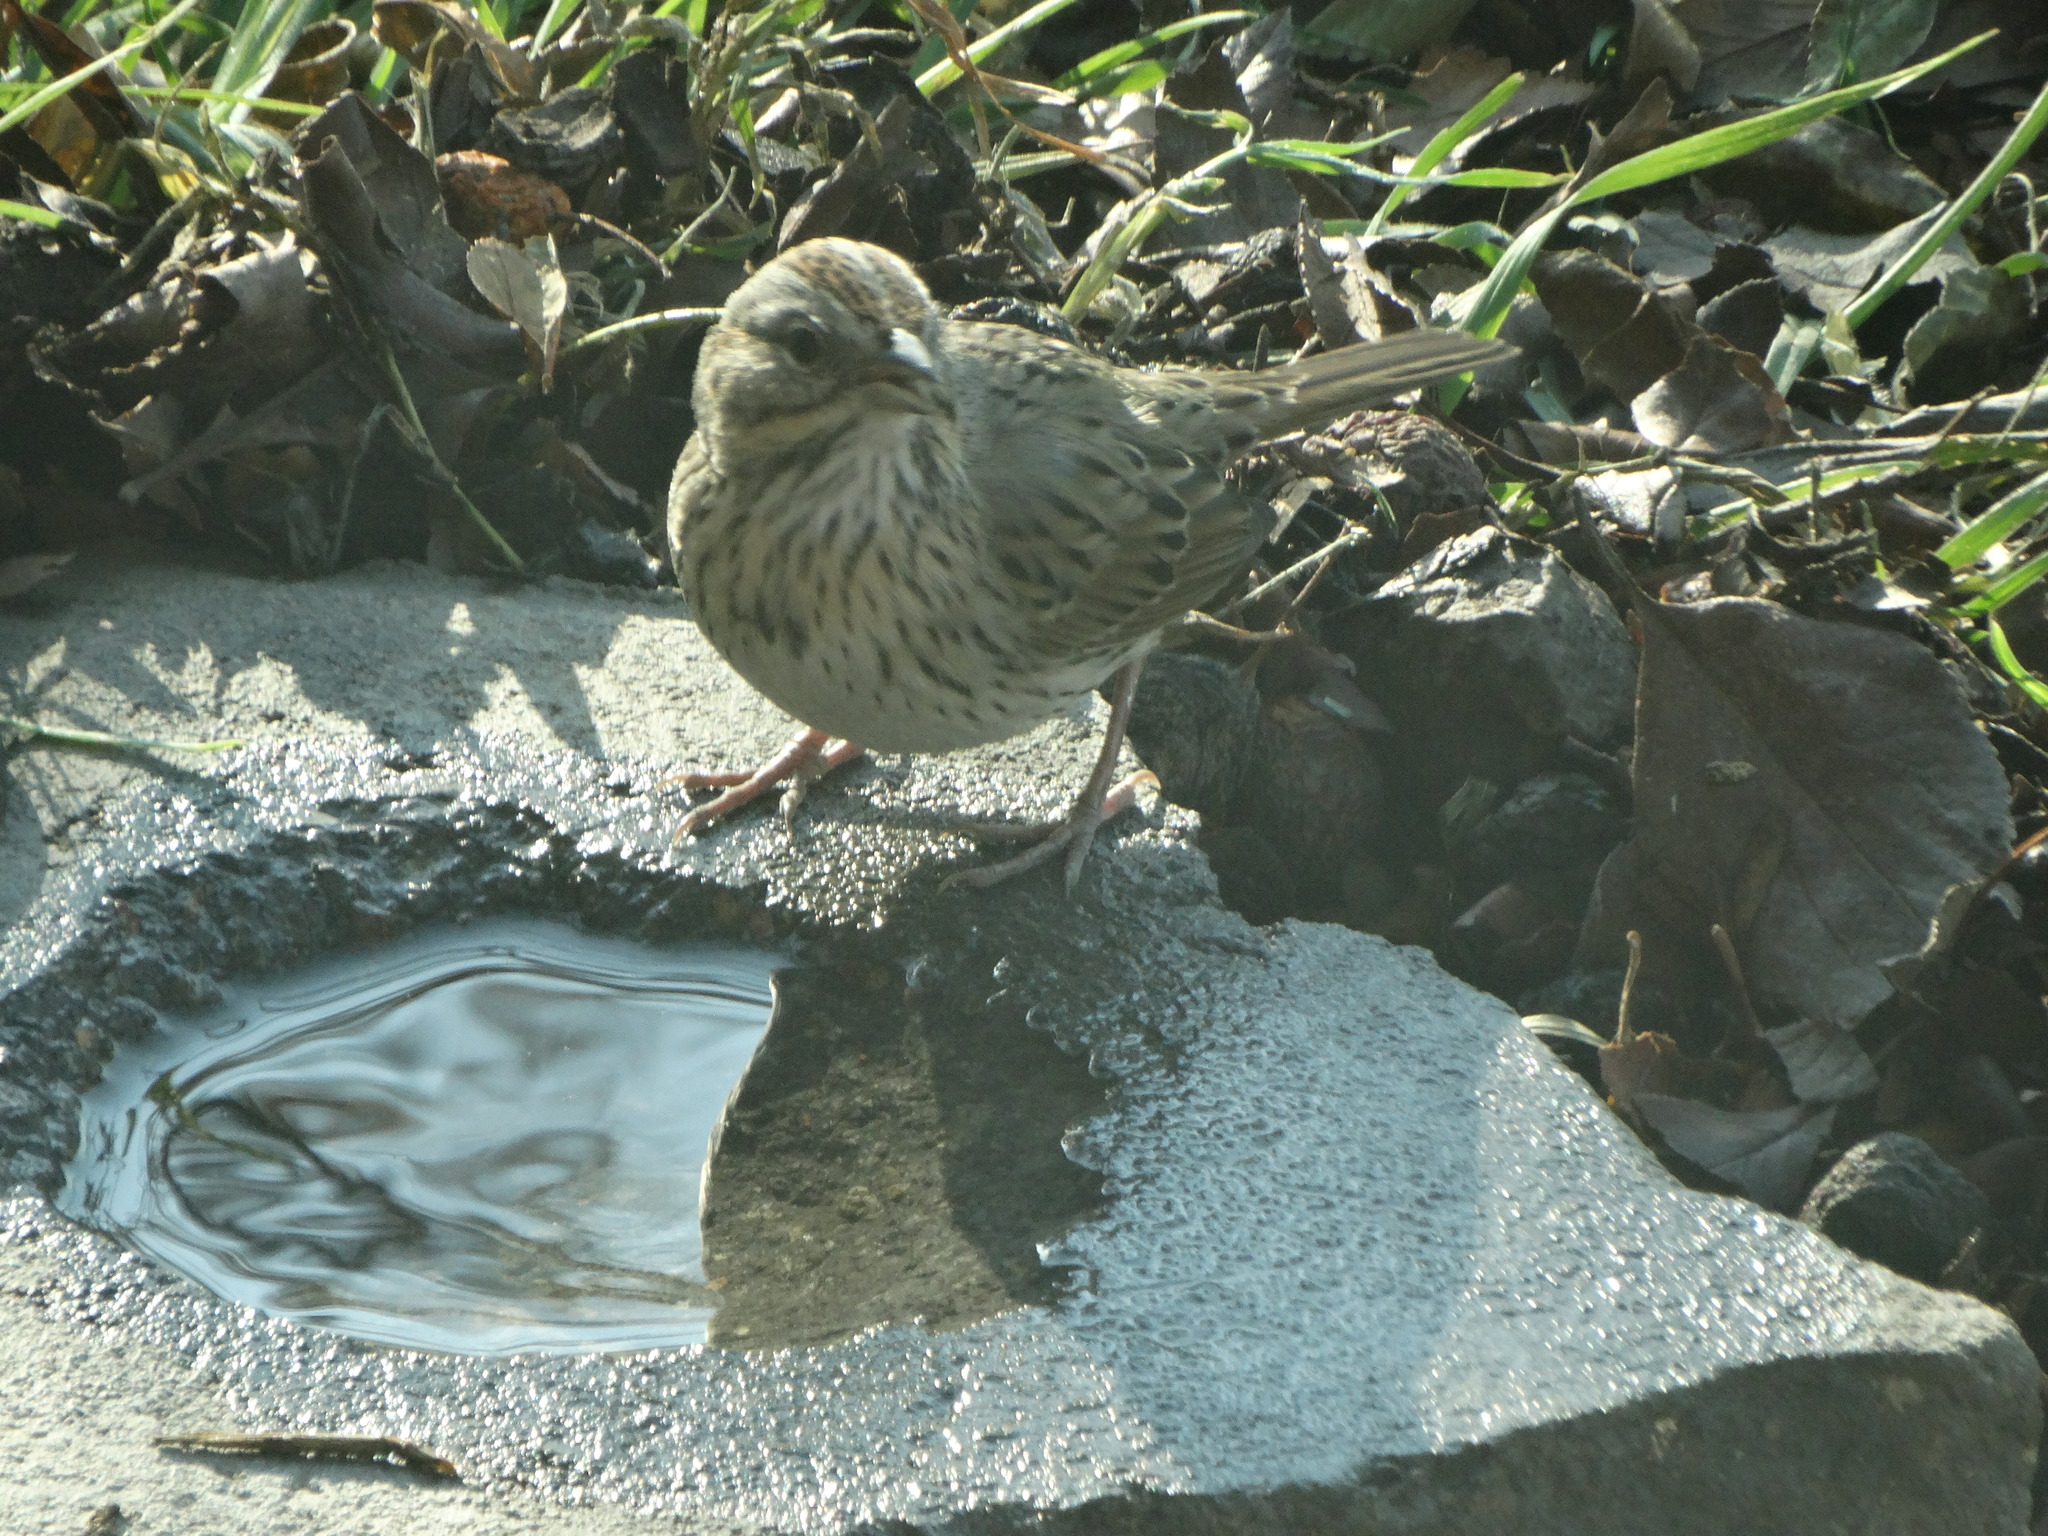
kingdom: Animalia
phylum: Chordata
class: Aves
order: Passeriformes
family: Passerellidae
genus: Melospiza
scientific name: Melospiza lincolnii
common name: Lincoln's sparrow
